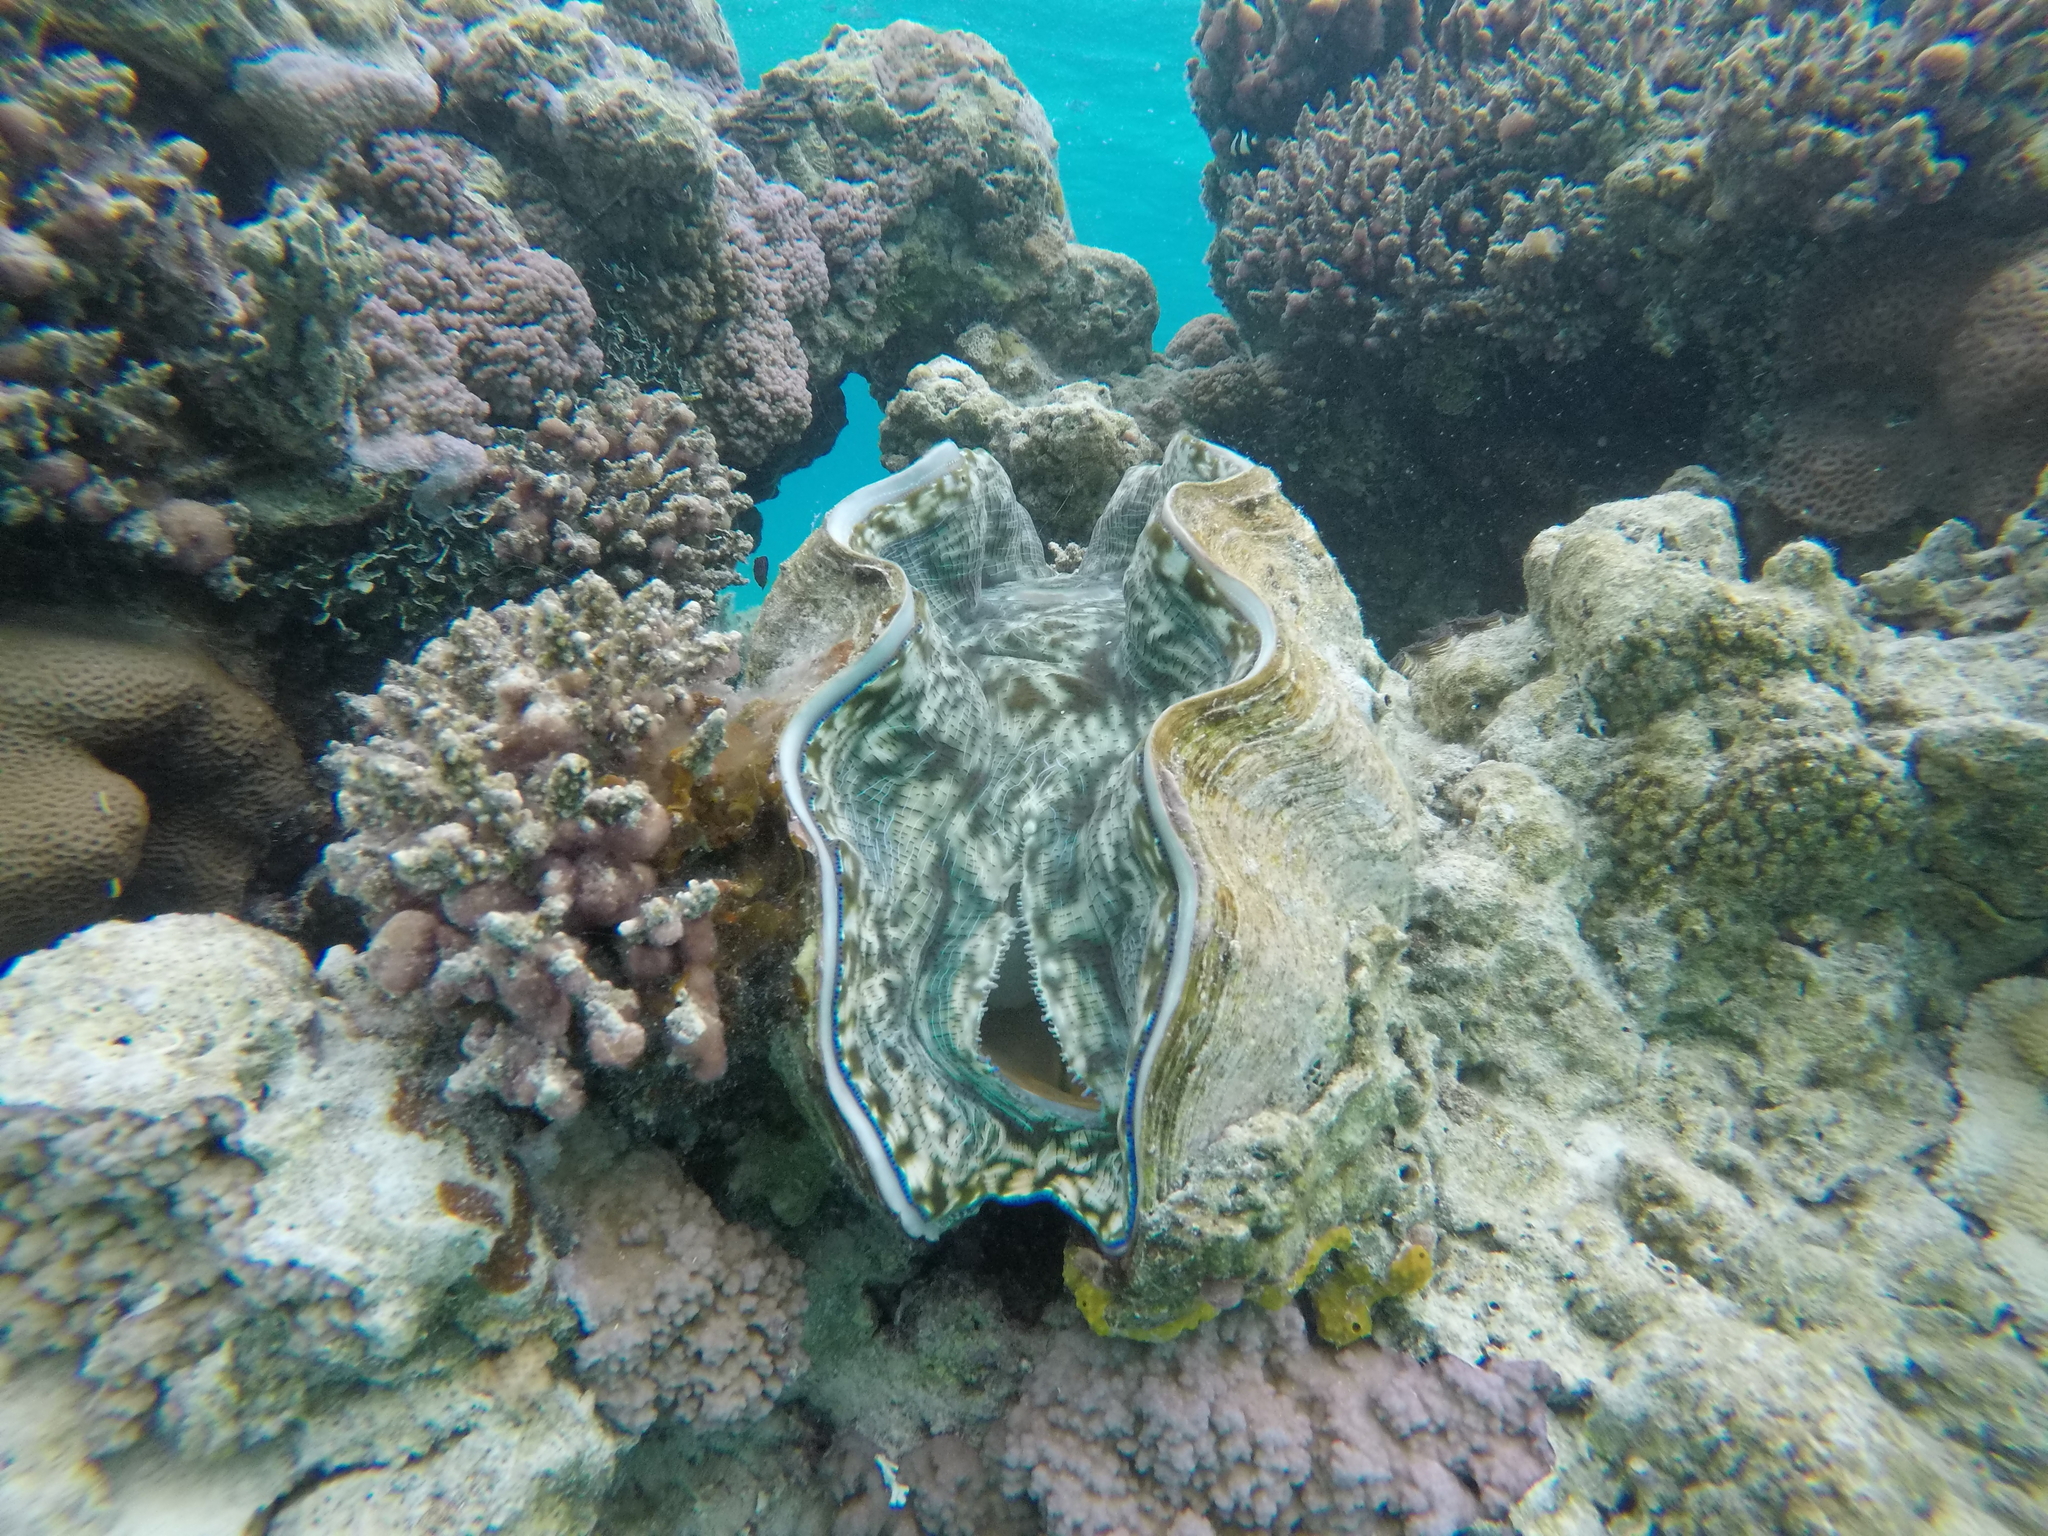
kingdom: Animalia
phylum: Mollusca
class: Bivalvia
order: Cardiida
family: Cardiidae
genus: Tridacna
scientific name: Tridacna derasa
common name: Southern giant clam
